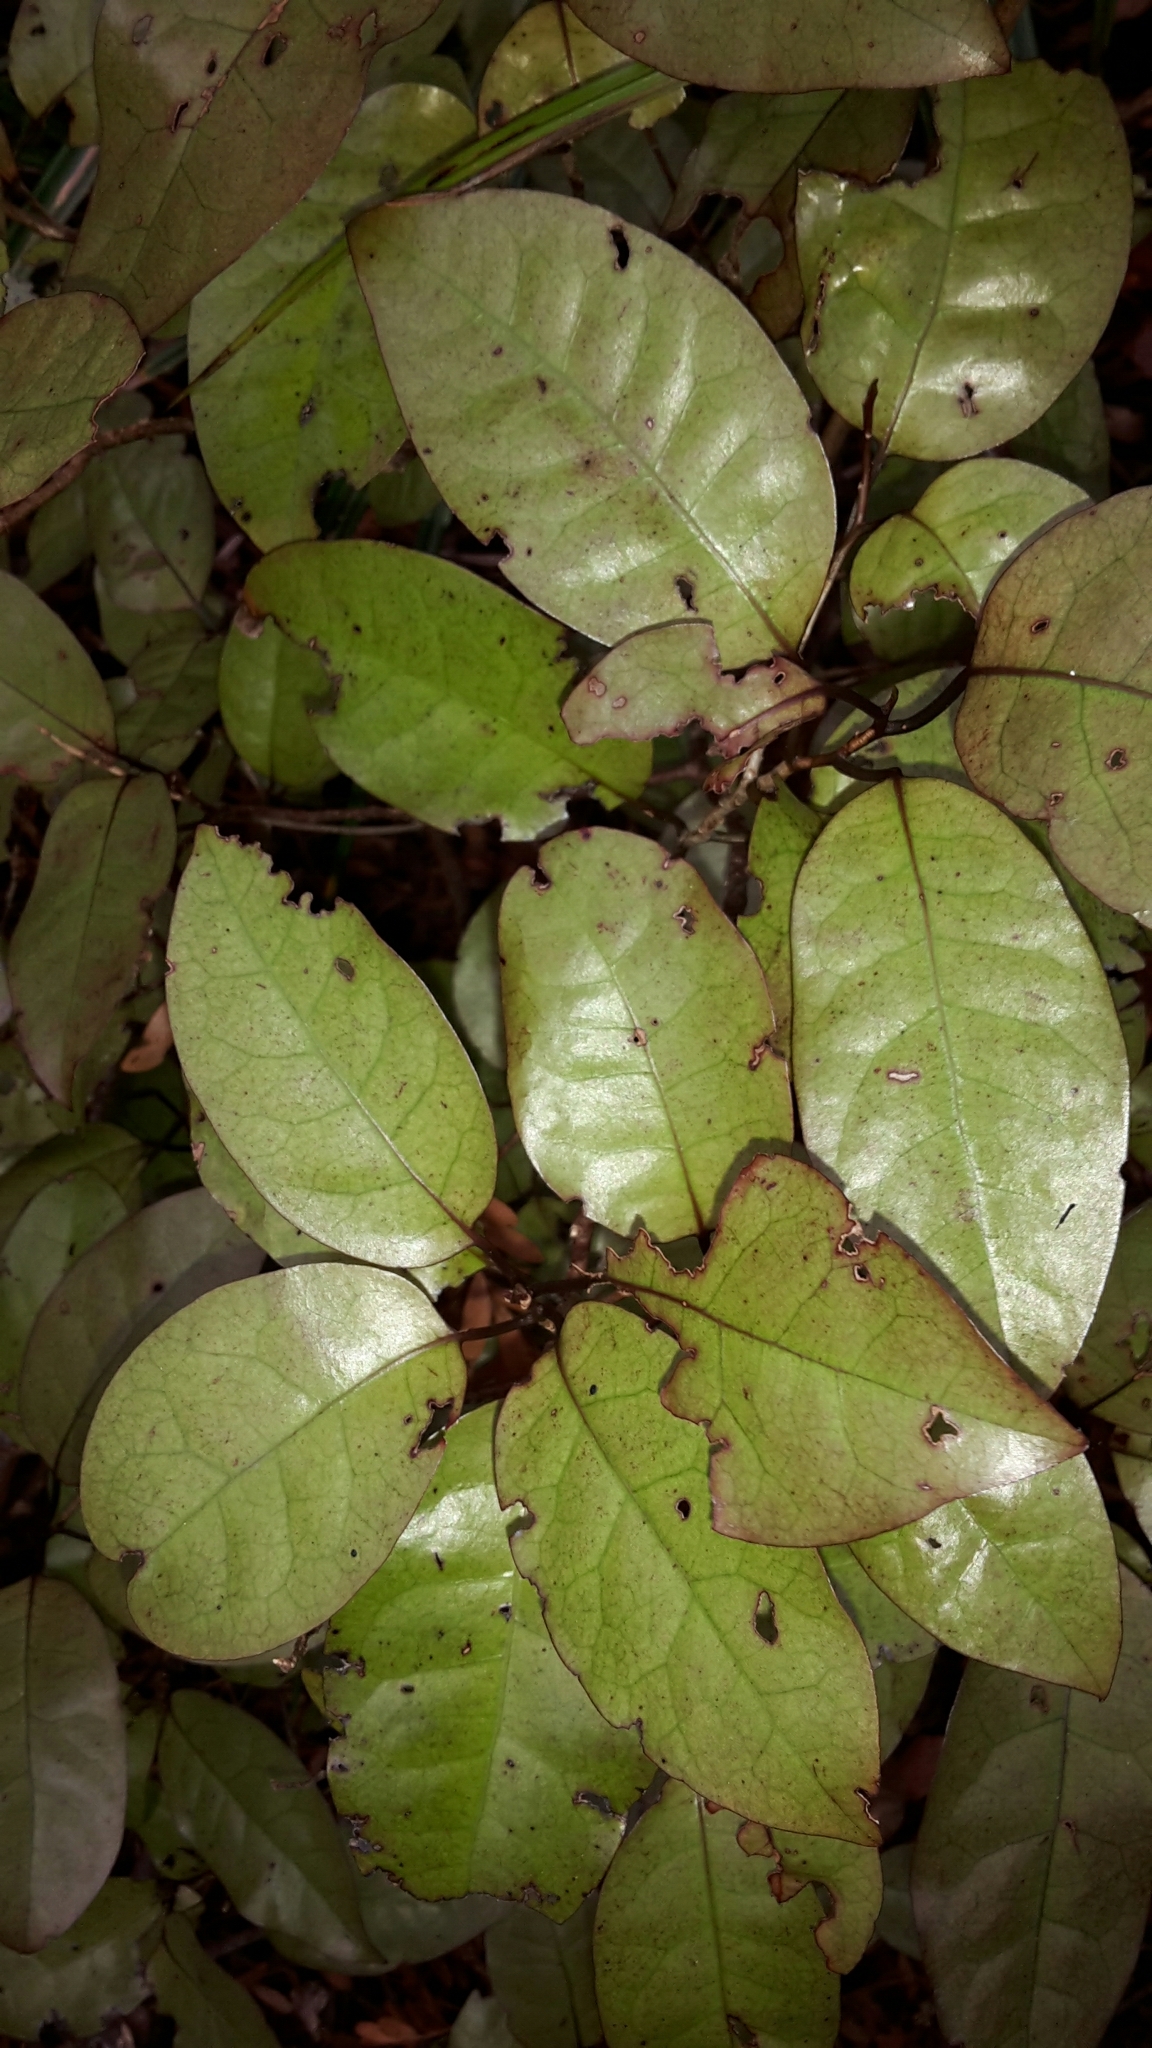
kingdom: Plantae
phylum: Tracheophyta
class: Magnoliopsida
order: Laurales
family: Lauraceae
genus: Litsea
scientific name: Litsea calicaris
